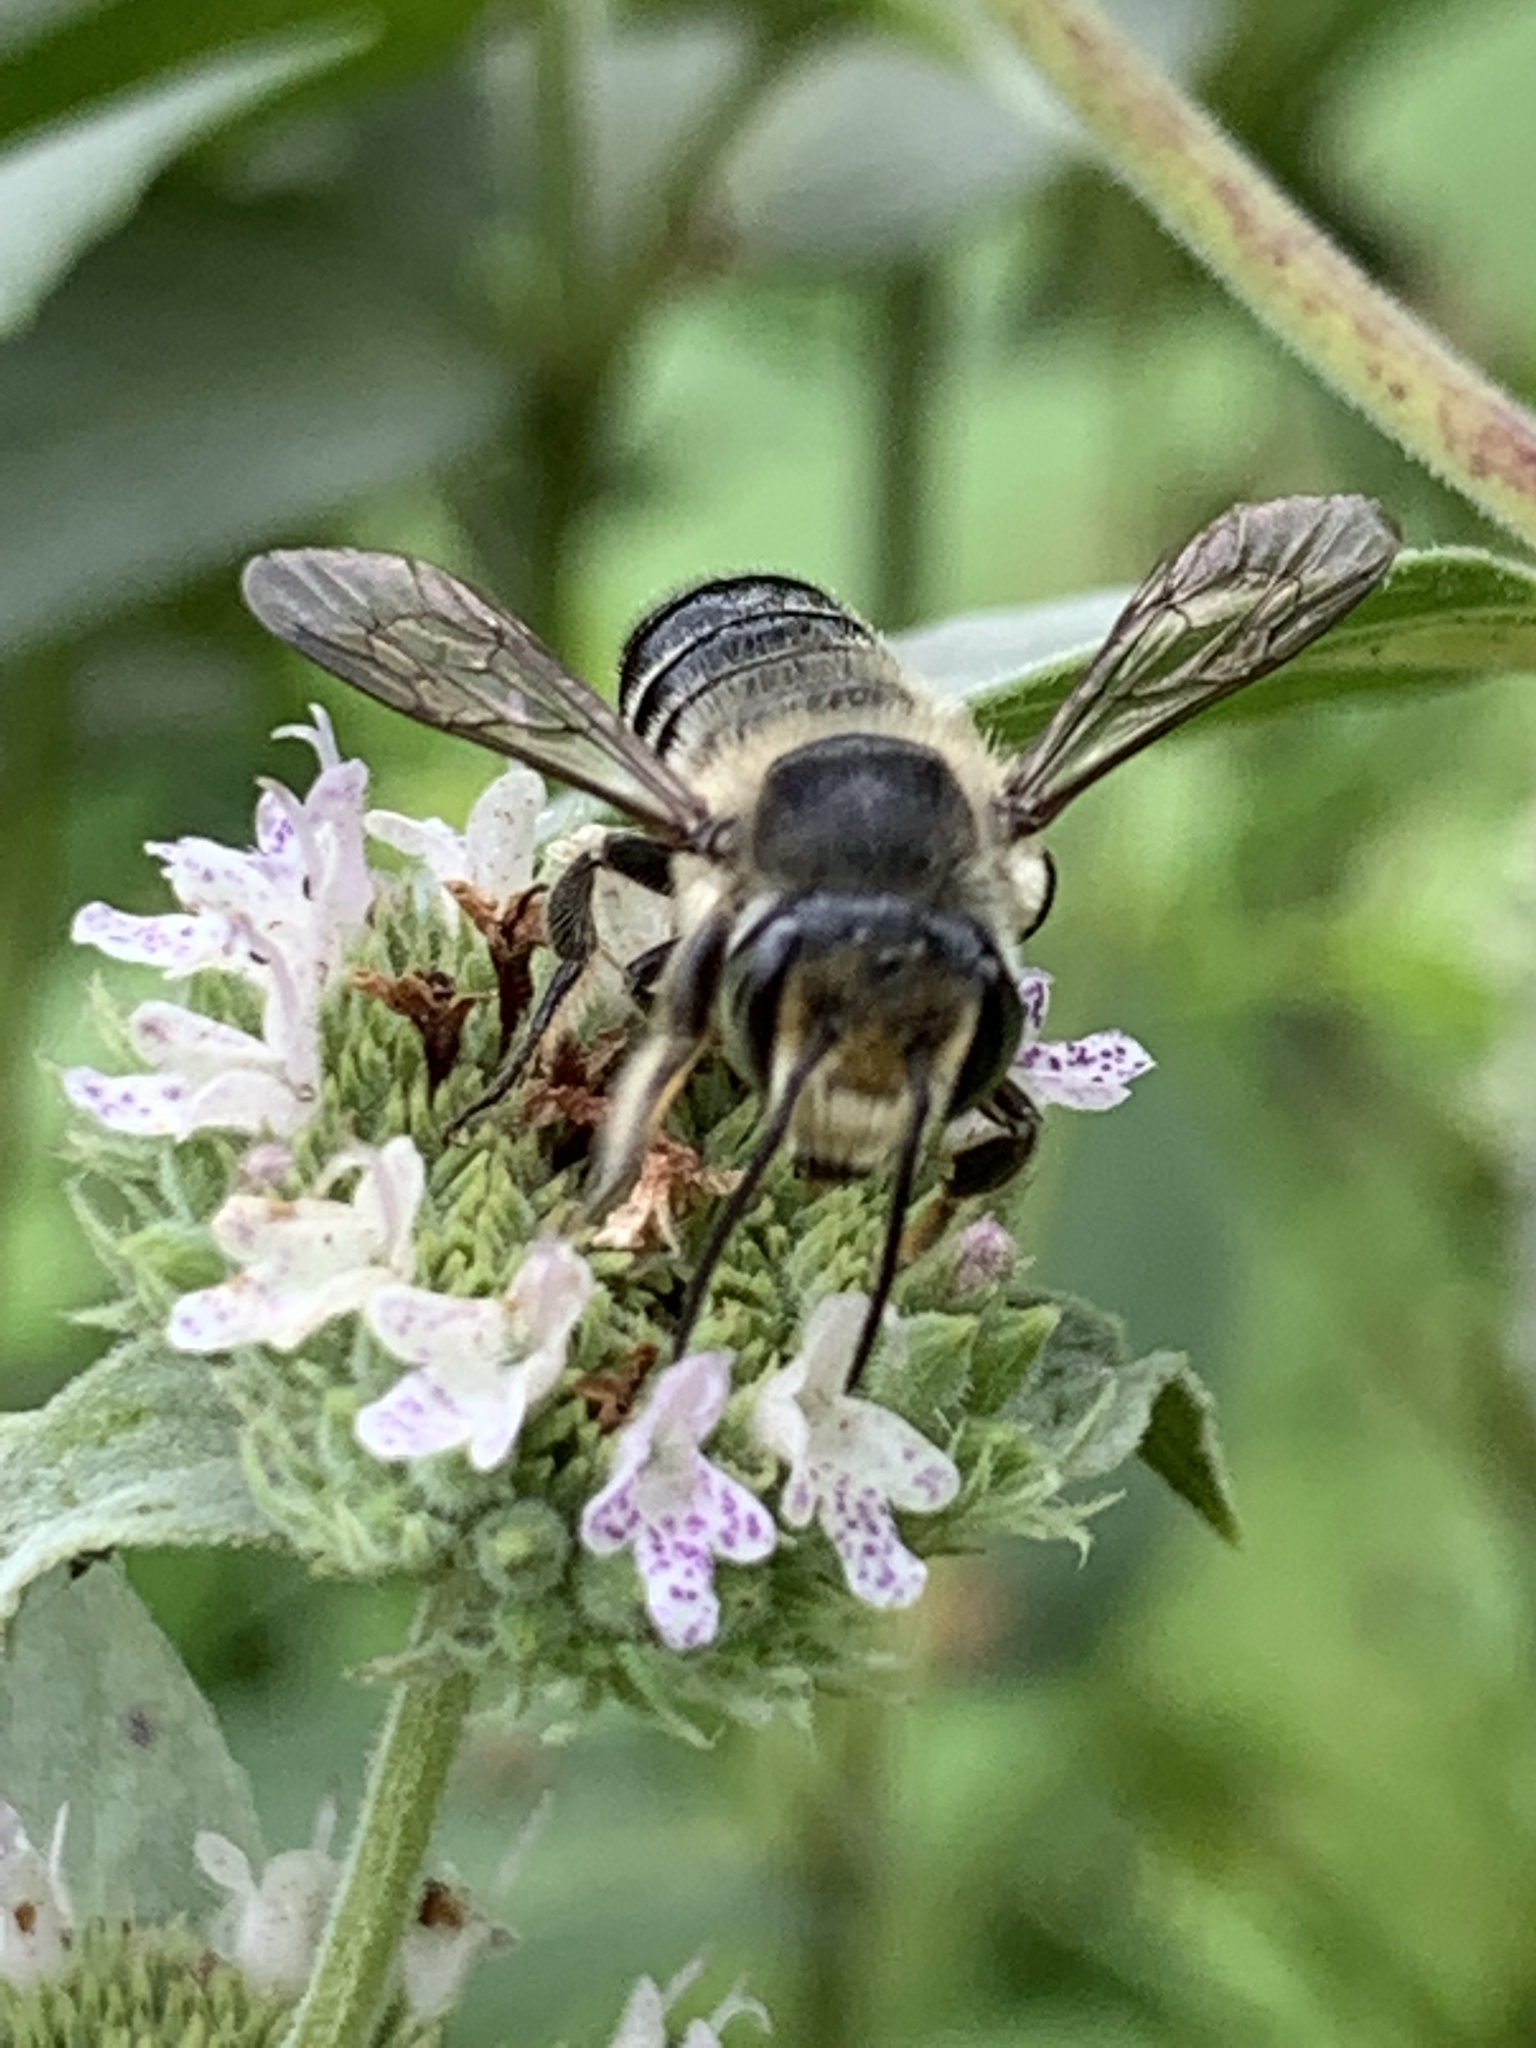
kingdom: Animalia
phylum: Arthropoda
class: Insecta
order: Hymenoptera
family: Megachilidae
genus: Megachile
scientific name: Megachile mendica
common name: Flat-tailed leafcutter
